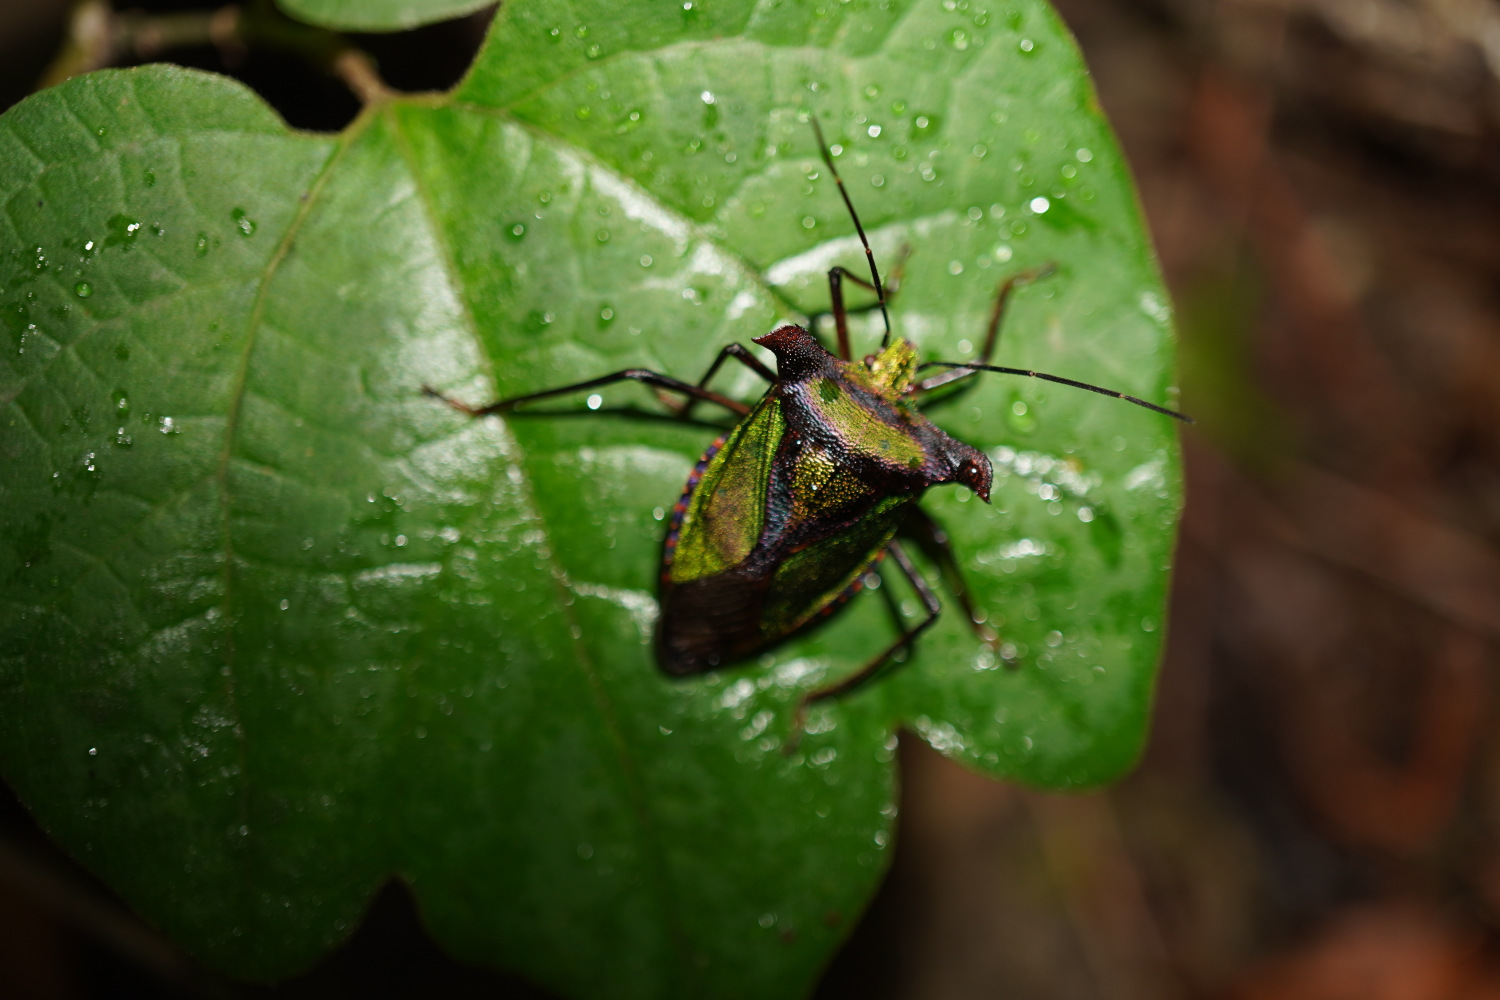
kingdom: Animalia
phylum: Arthropoda
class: Insecta
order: Hemiptera
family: Pentatomidae
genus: Pentatoma
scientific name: Pentatoma
